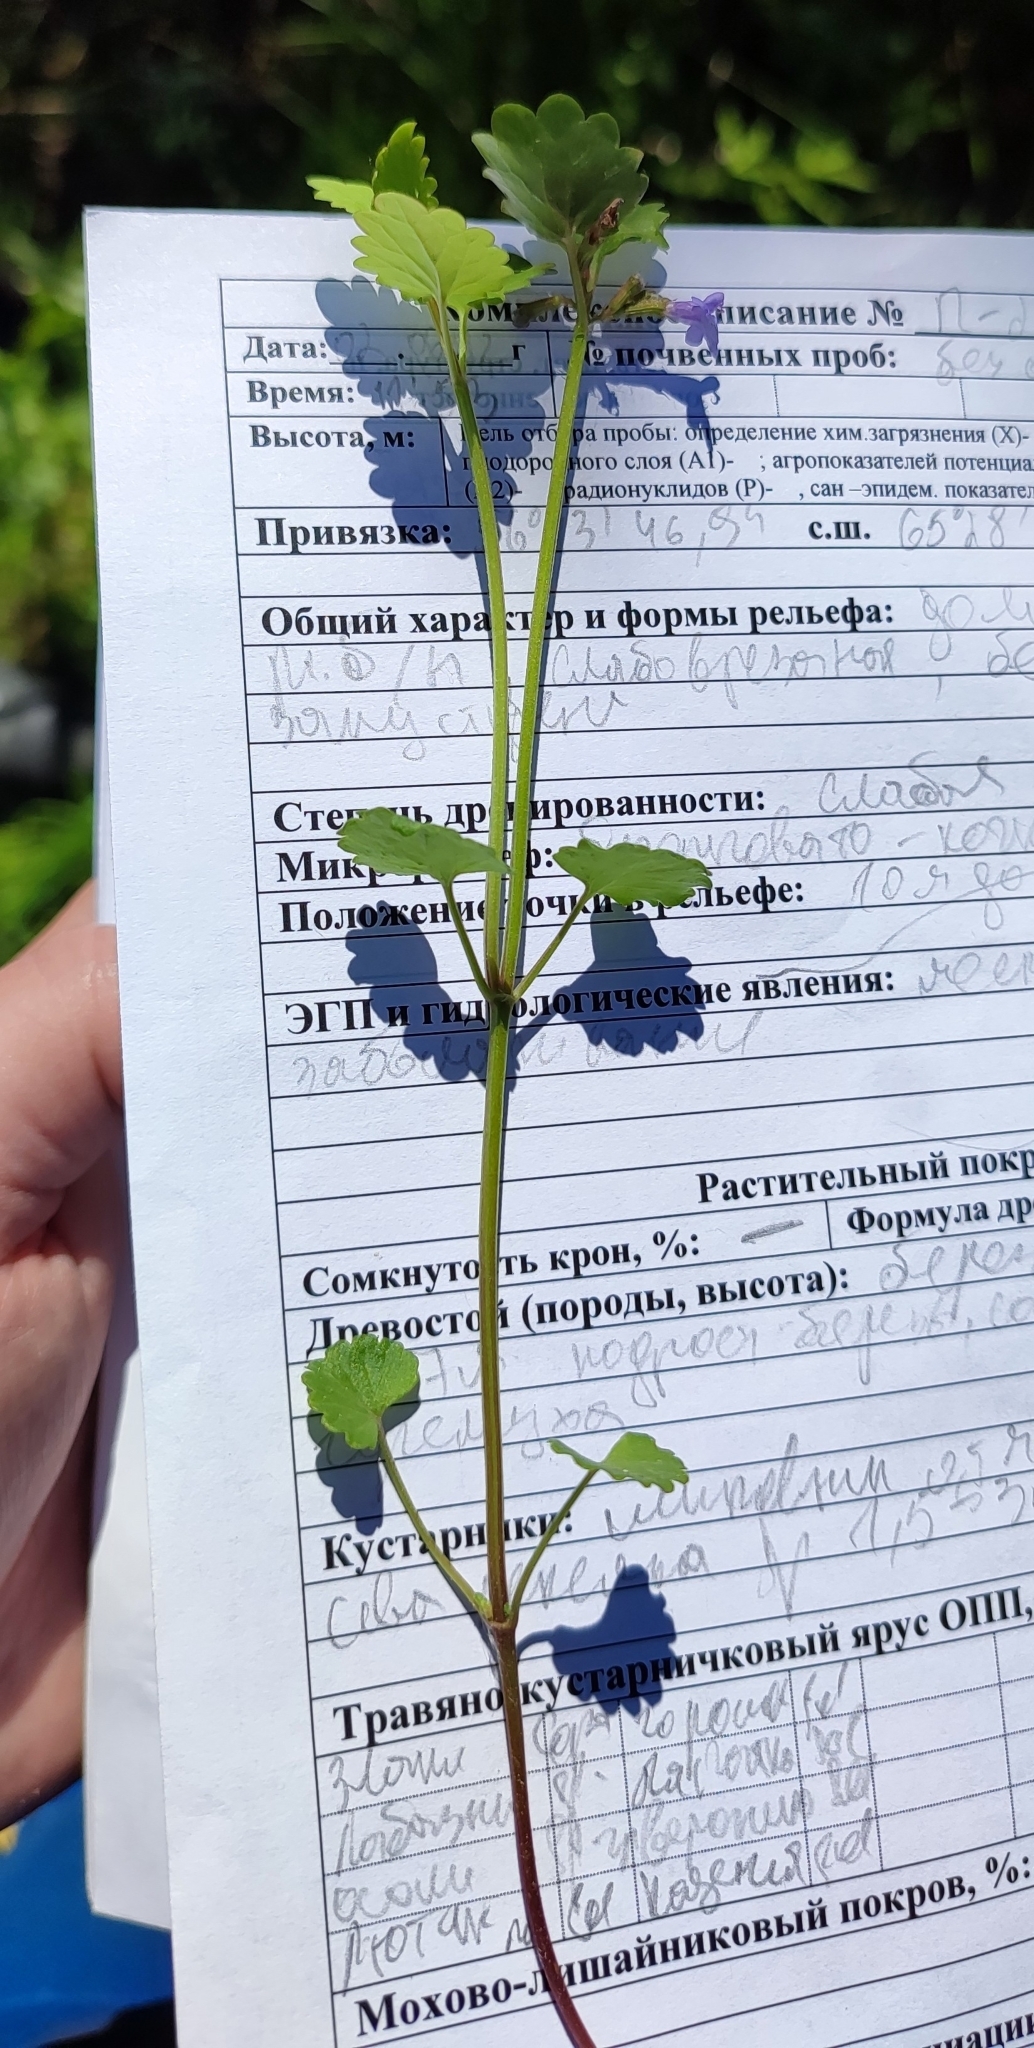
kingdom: Plantae
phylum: Tracheophyta
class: Magnoliopsida
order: Lamiales
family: Lamiaceae
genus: Glechoma
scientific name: Glechoma hederacea
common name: Ground ivy
